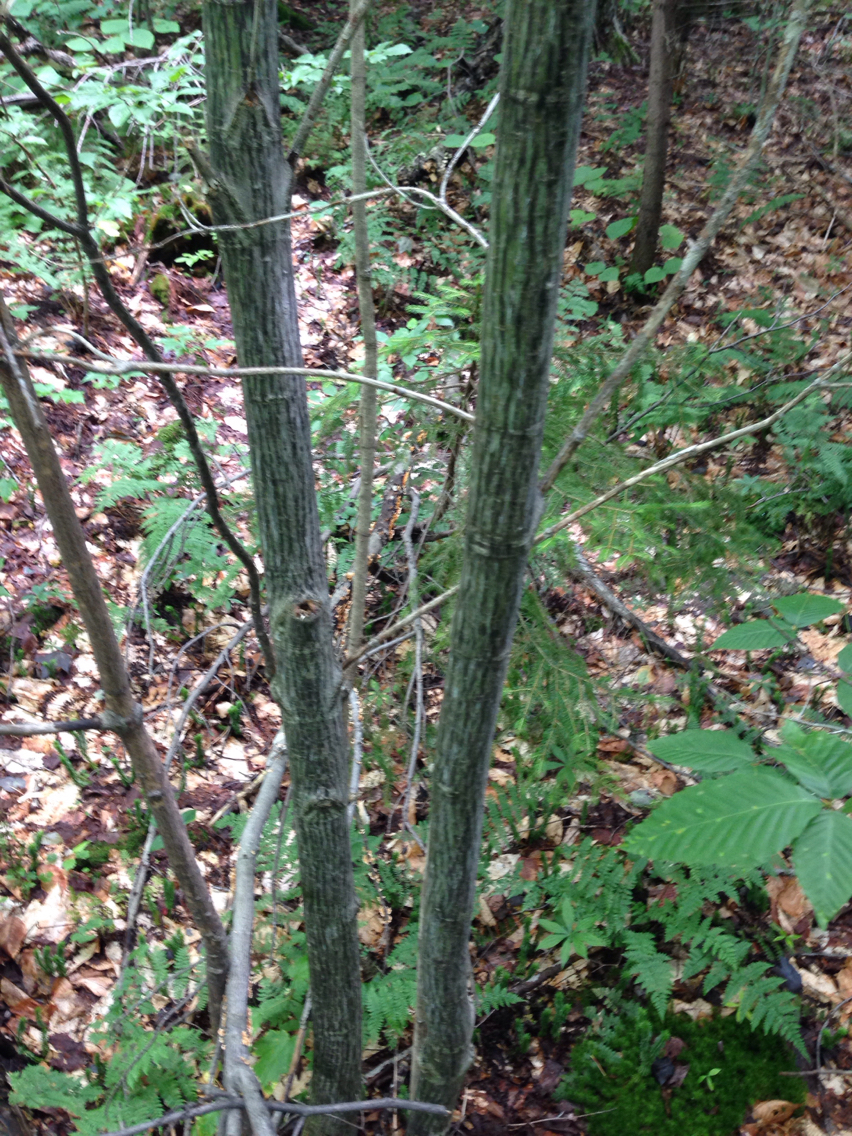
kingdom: Plantae
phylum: Tracheophyta
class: Magnoliopsida
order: Sapindales
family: Sapindaceae
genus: Acer
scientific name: Acer pensylvanicum
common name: Moosewood
